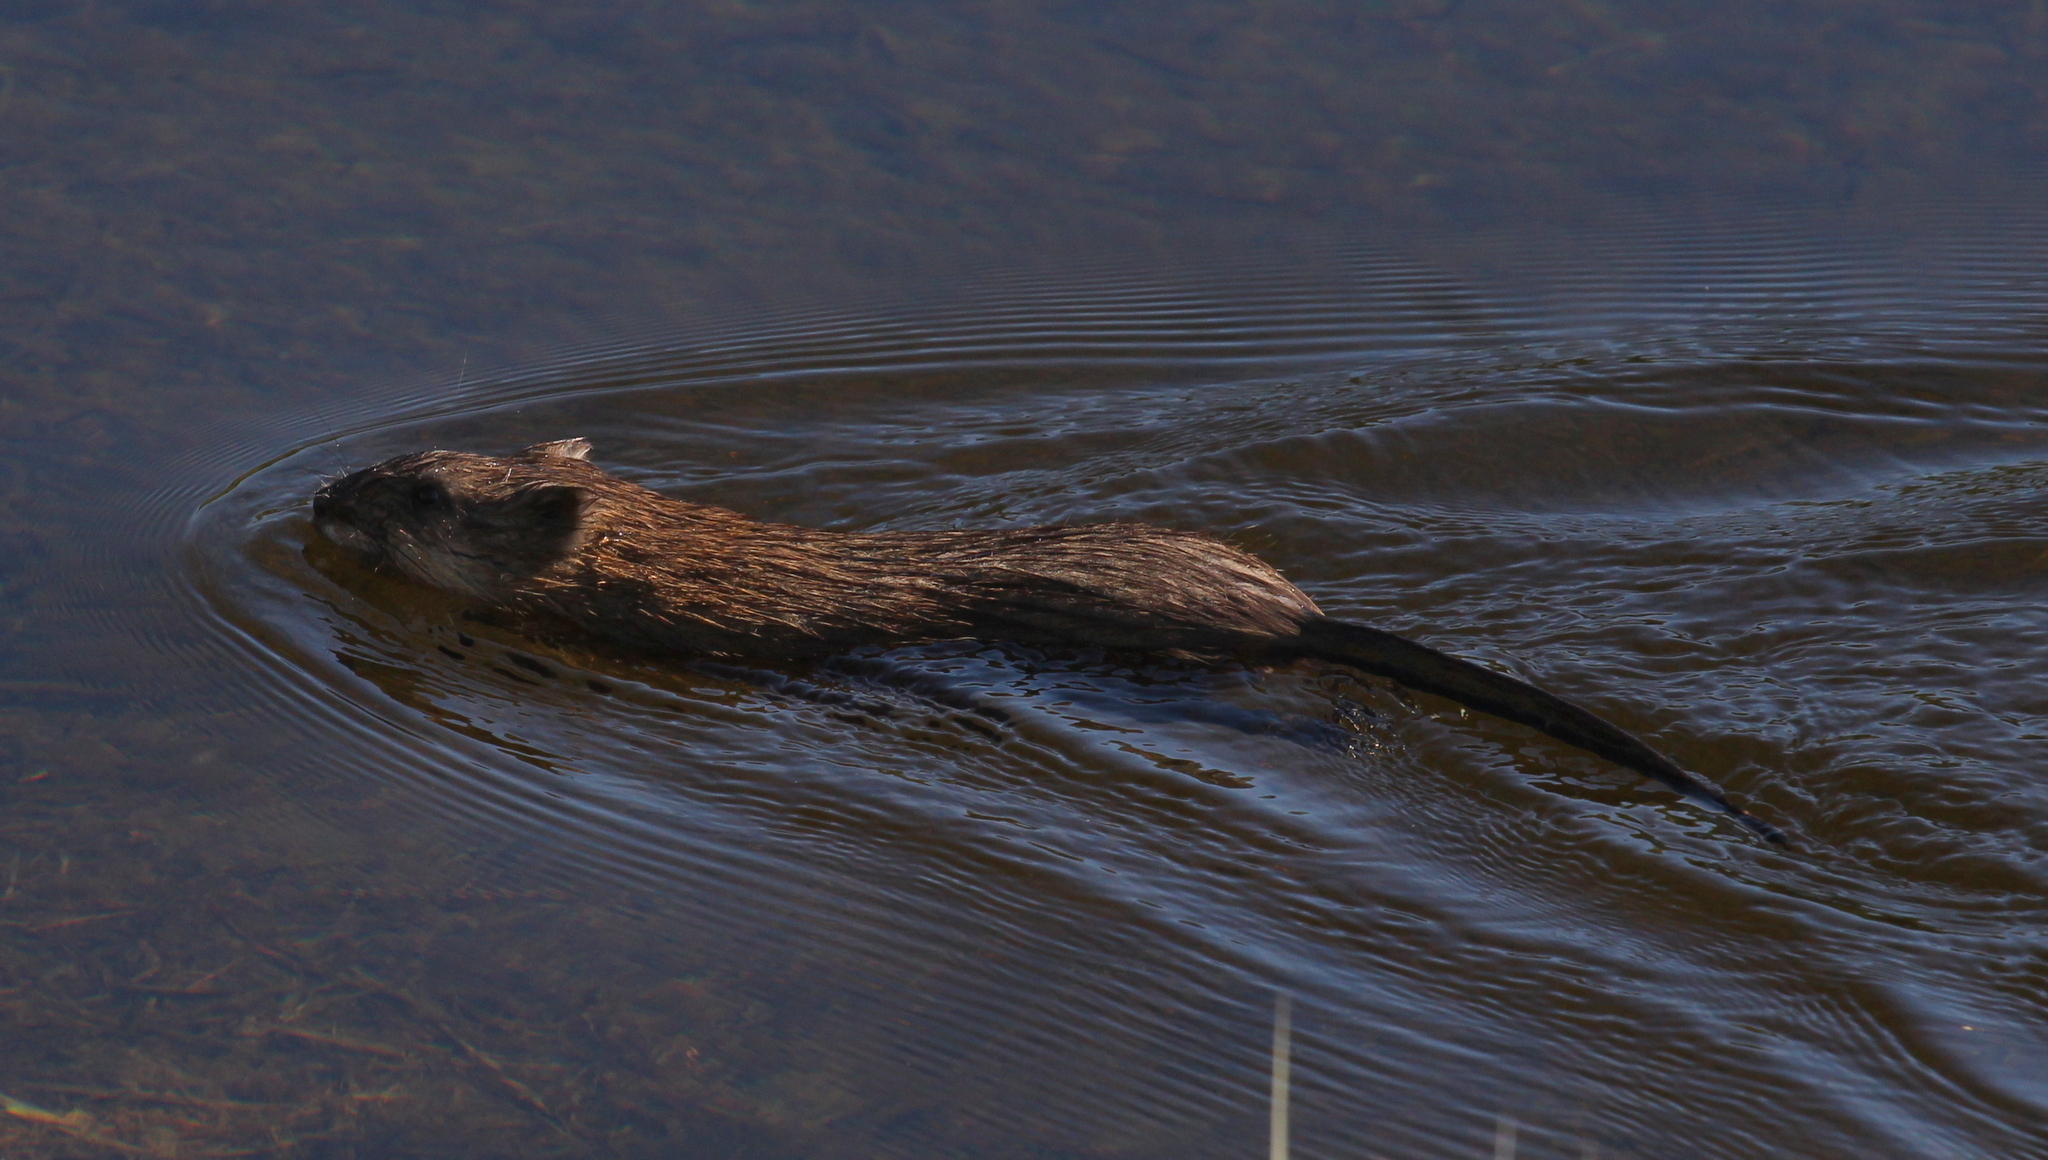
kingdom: Animalia
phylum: Chordata
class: Mammalia
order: Rodentia
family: Cricetidae
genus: Ondatra
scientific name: Ondatra zibethicus
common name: Muskrat
